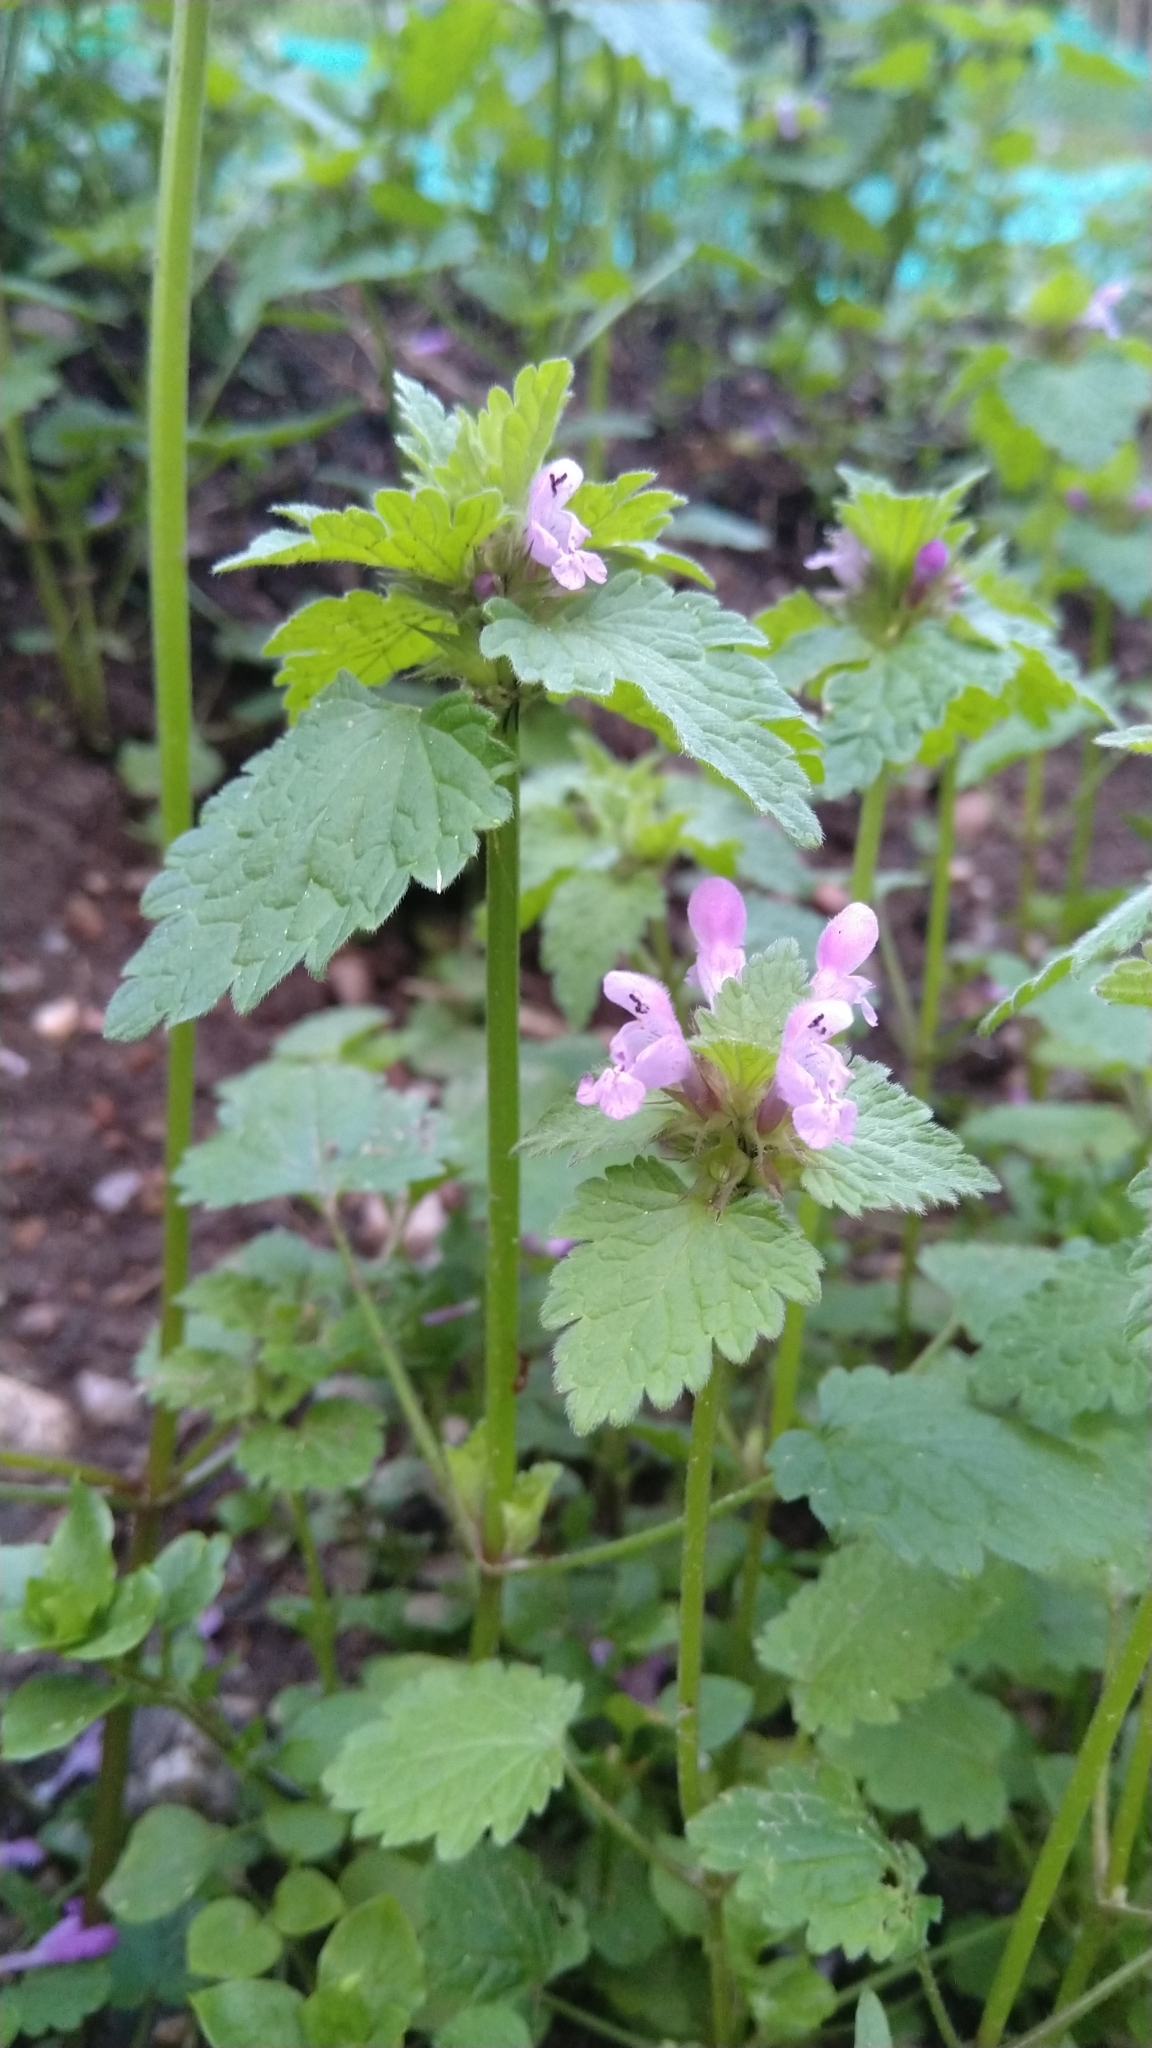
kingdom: Plantae
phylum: Tracheophyta
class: Magnoliopsida
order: Lamiales
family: Lamiaceae
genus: Lamium
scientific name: Lamium hybridum
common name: Cut-leaved dead-nettle
